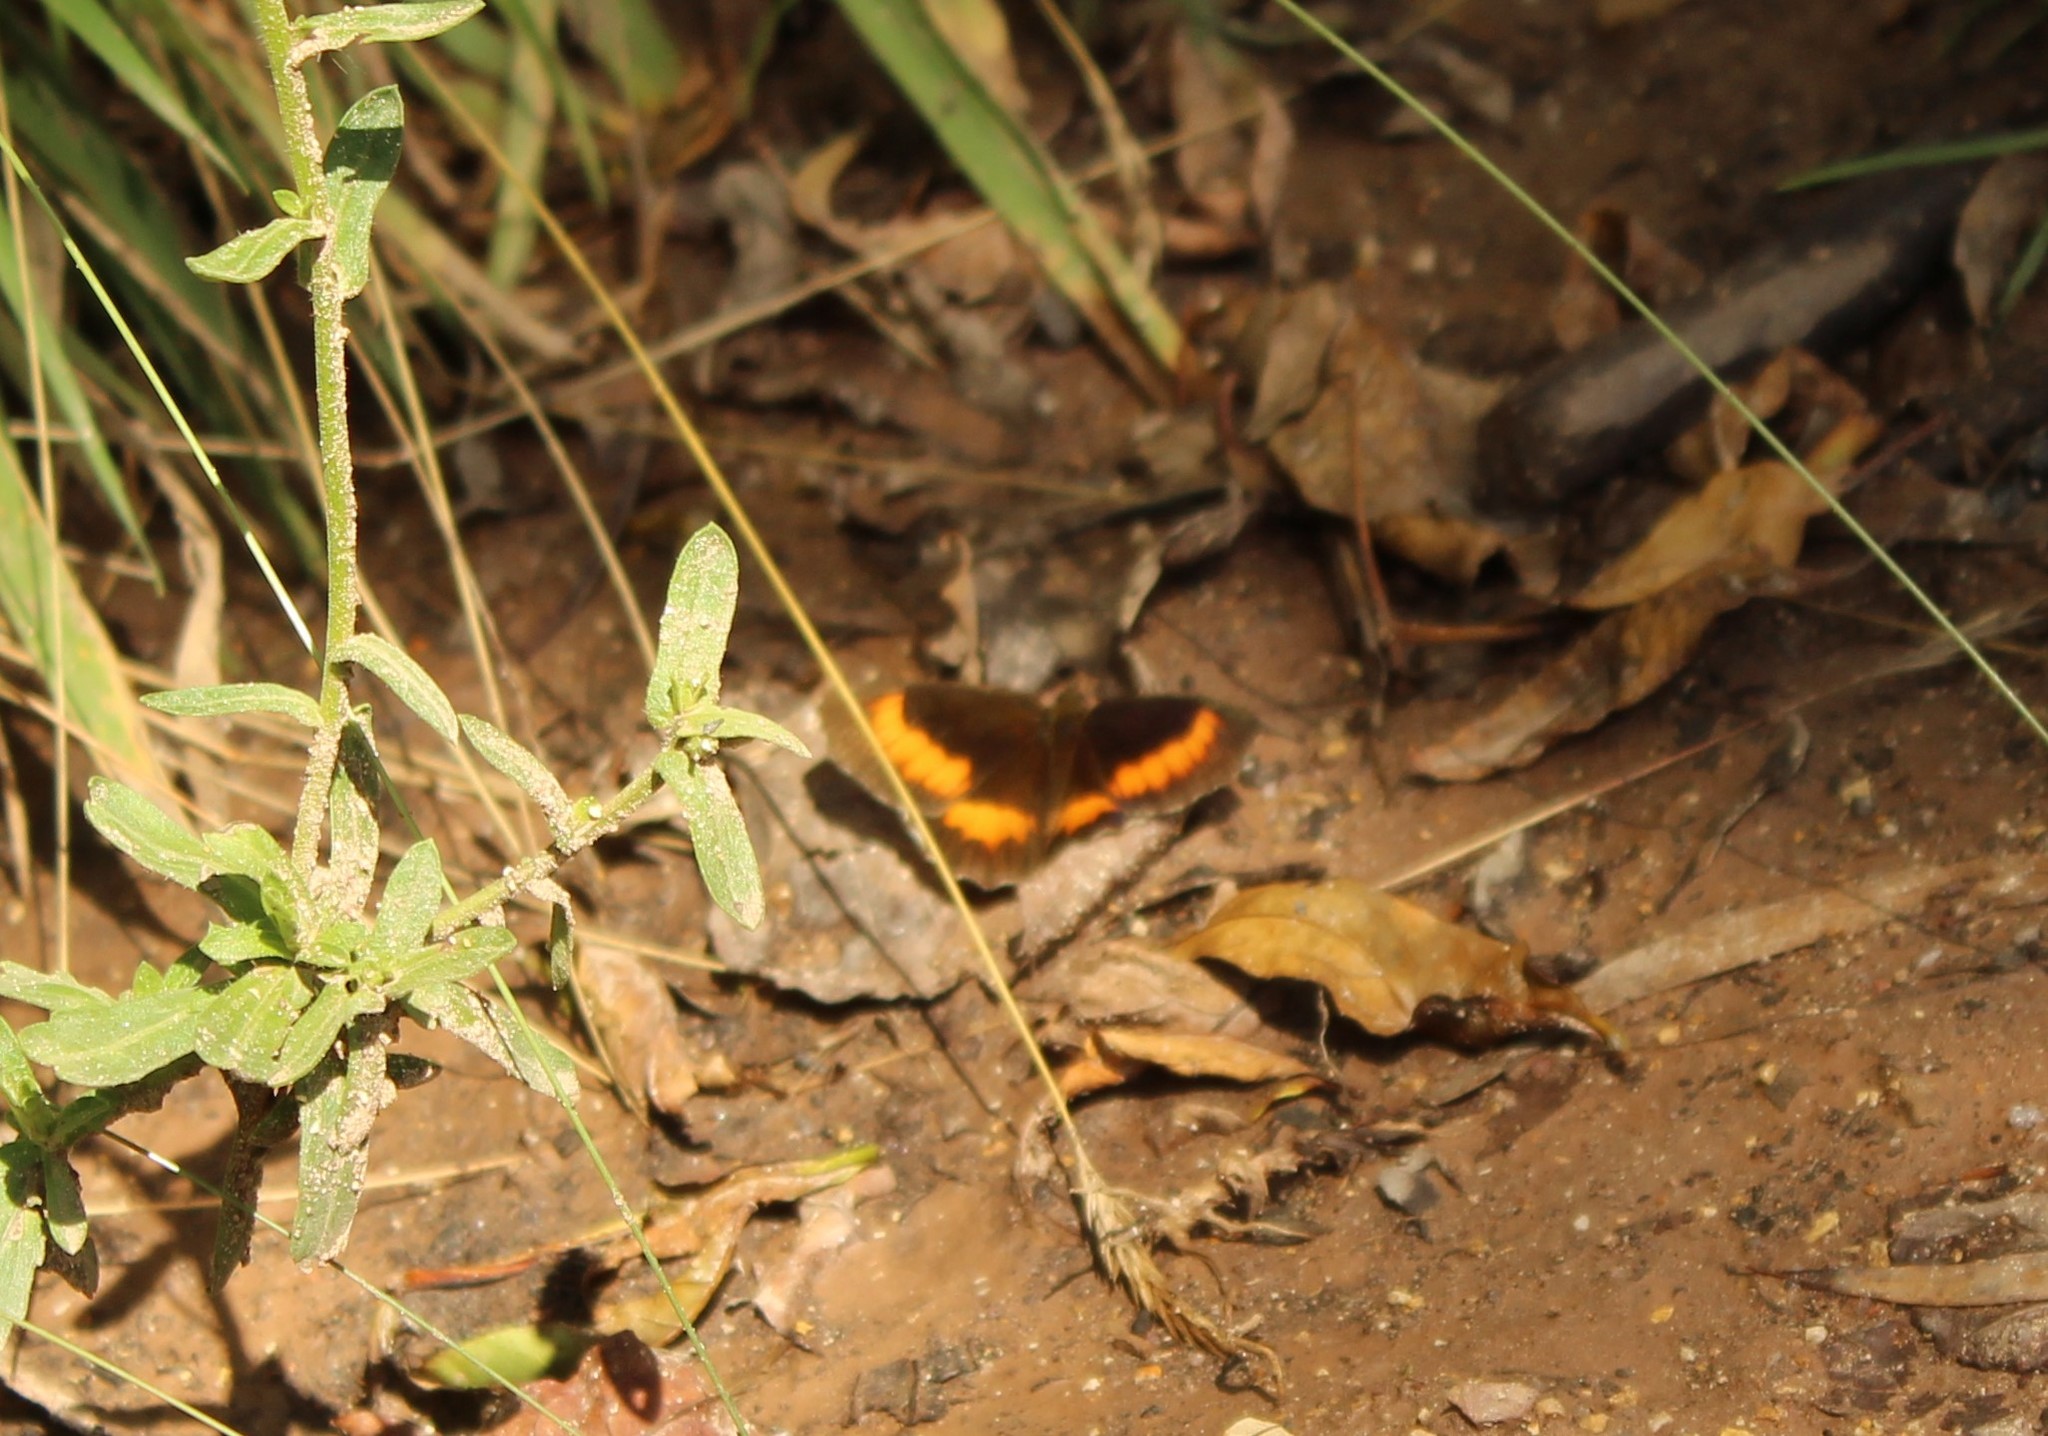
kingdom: Animalia
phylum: Arthropoda
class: Insecta
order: Lepidoptera
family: Nymphalidae
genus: Pedaliodes
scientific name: Pedaliodes phaea
